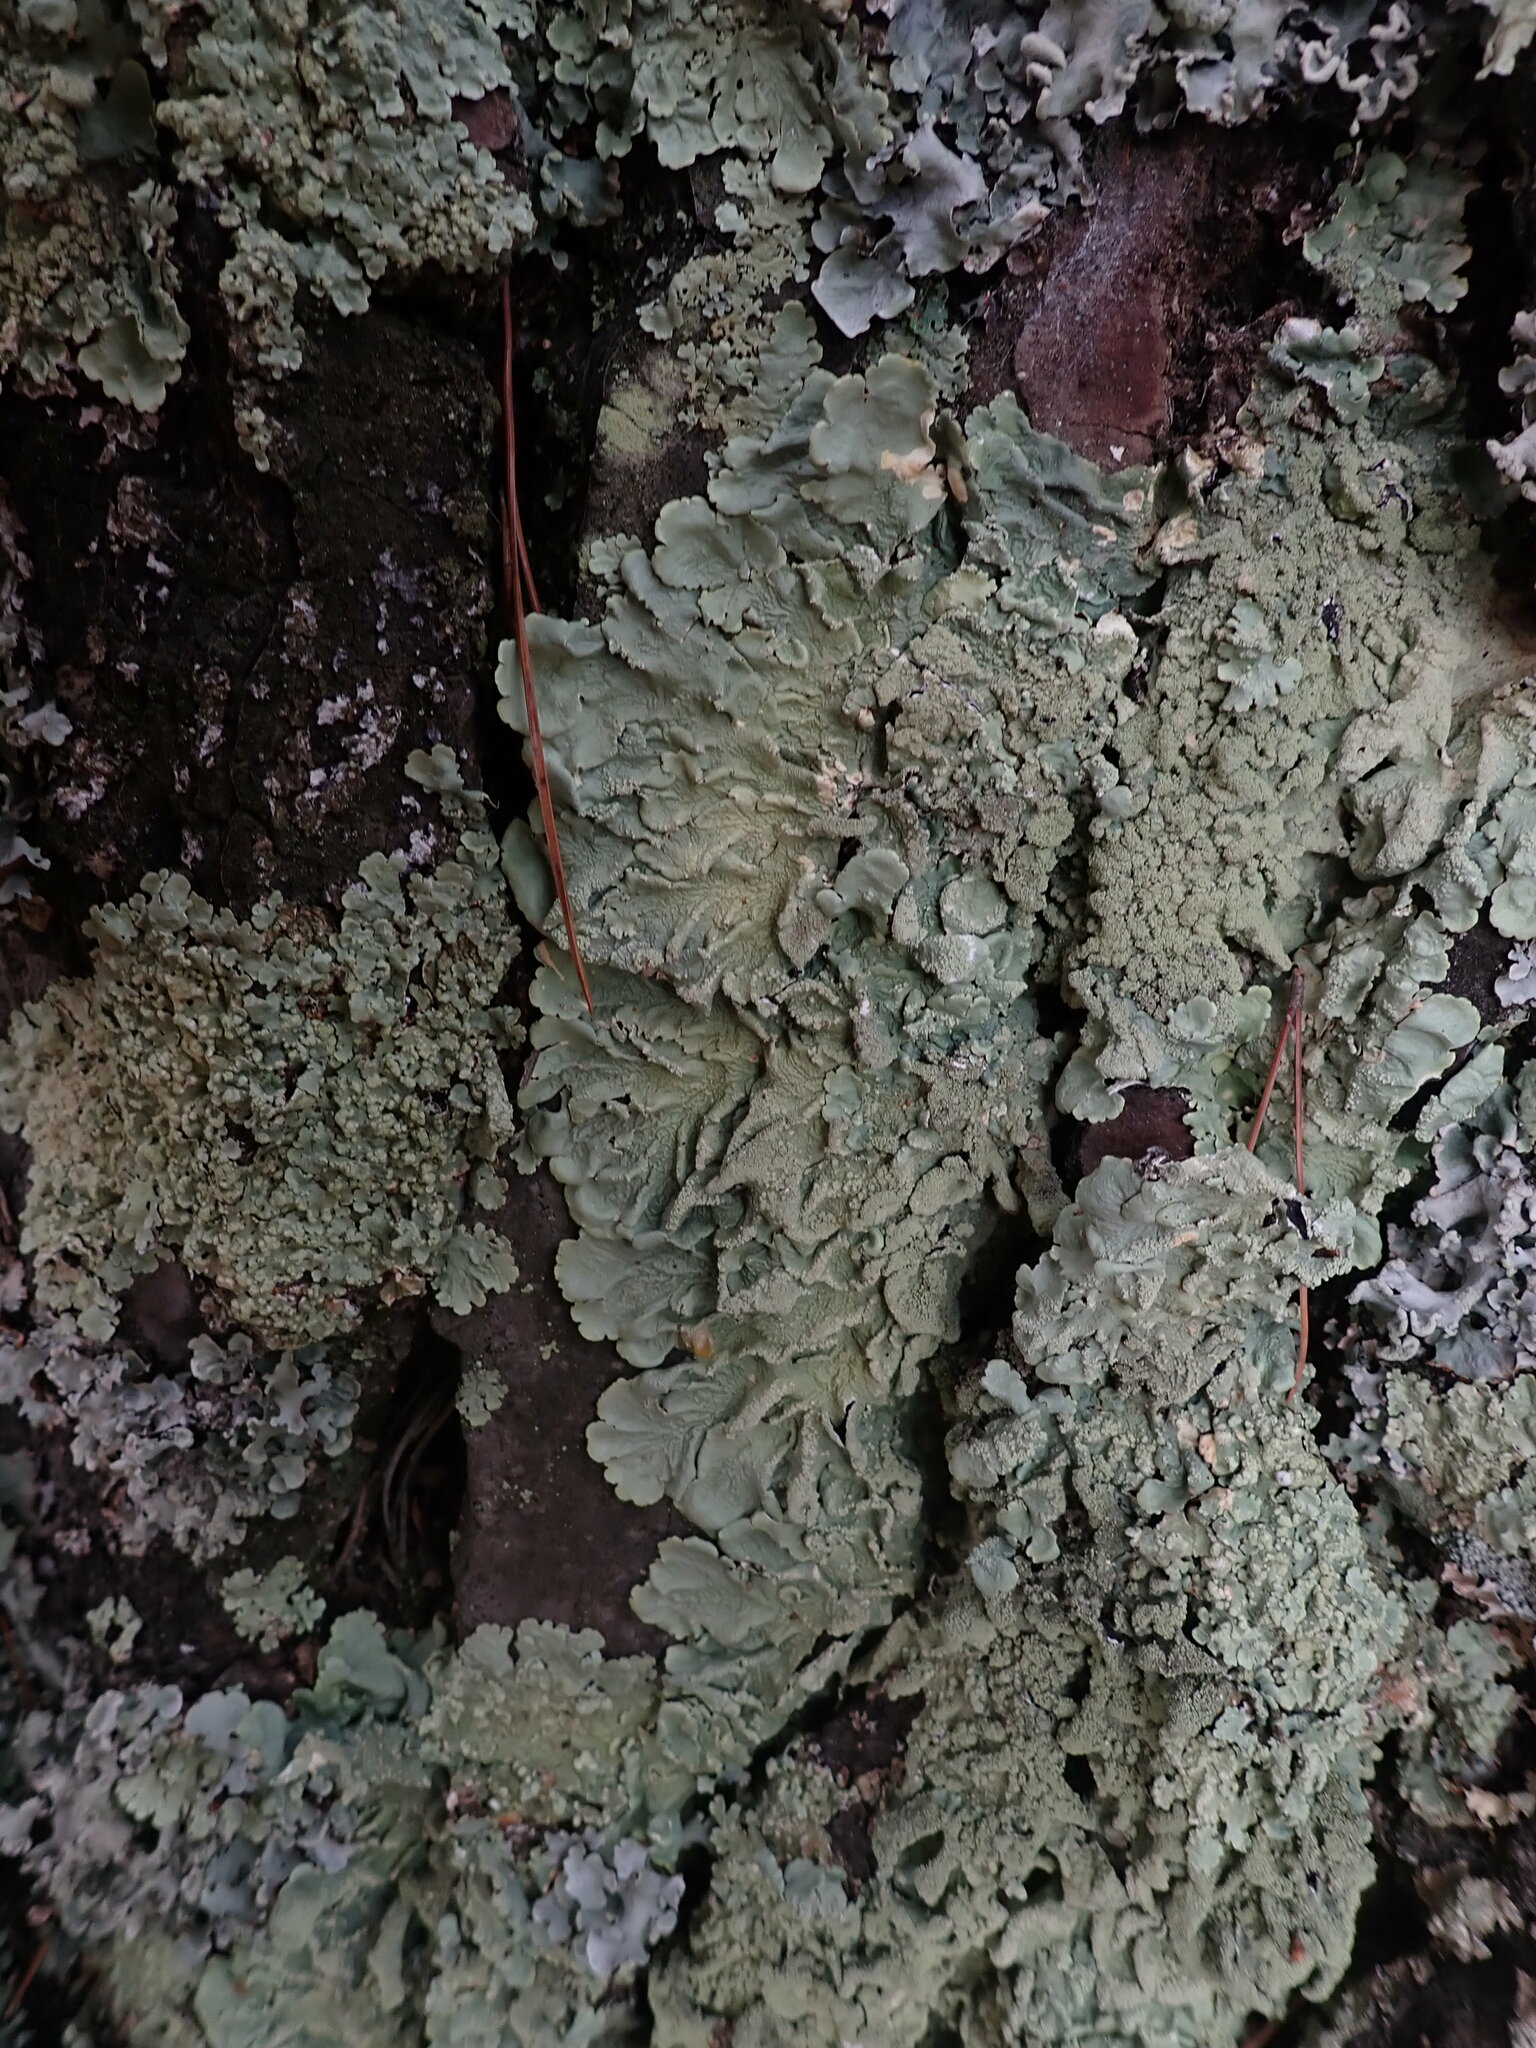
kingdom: Fungi
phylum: Ascomycota
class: Lecanoromycetes
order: Lecanorales
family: Parmeliaceae
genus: Flavoparmelia
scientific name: Flavoparmelia caperata
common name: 40-mile per hour lichen
